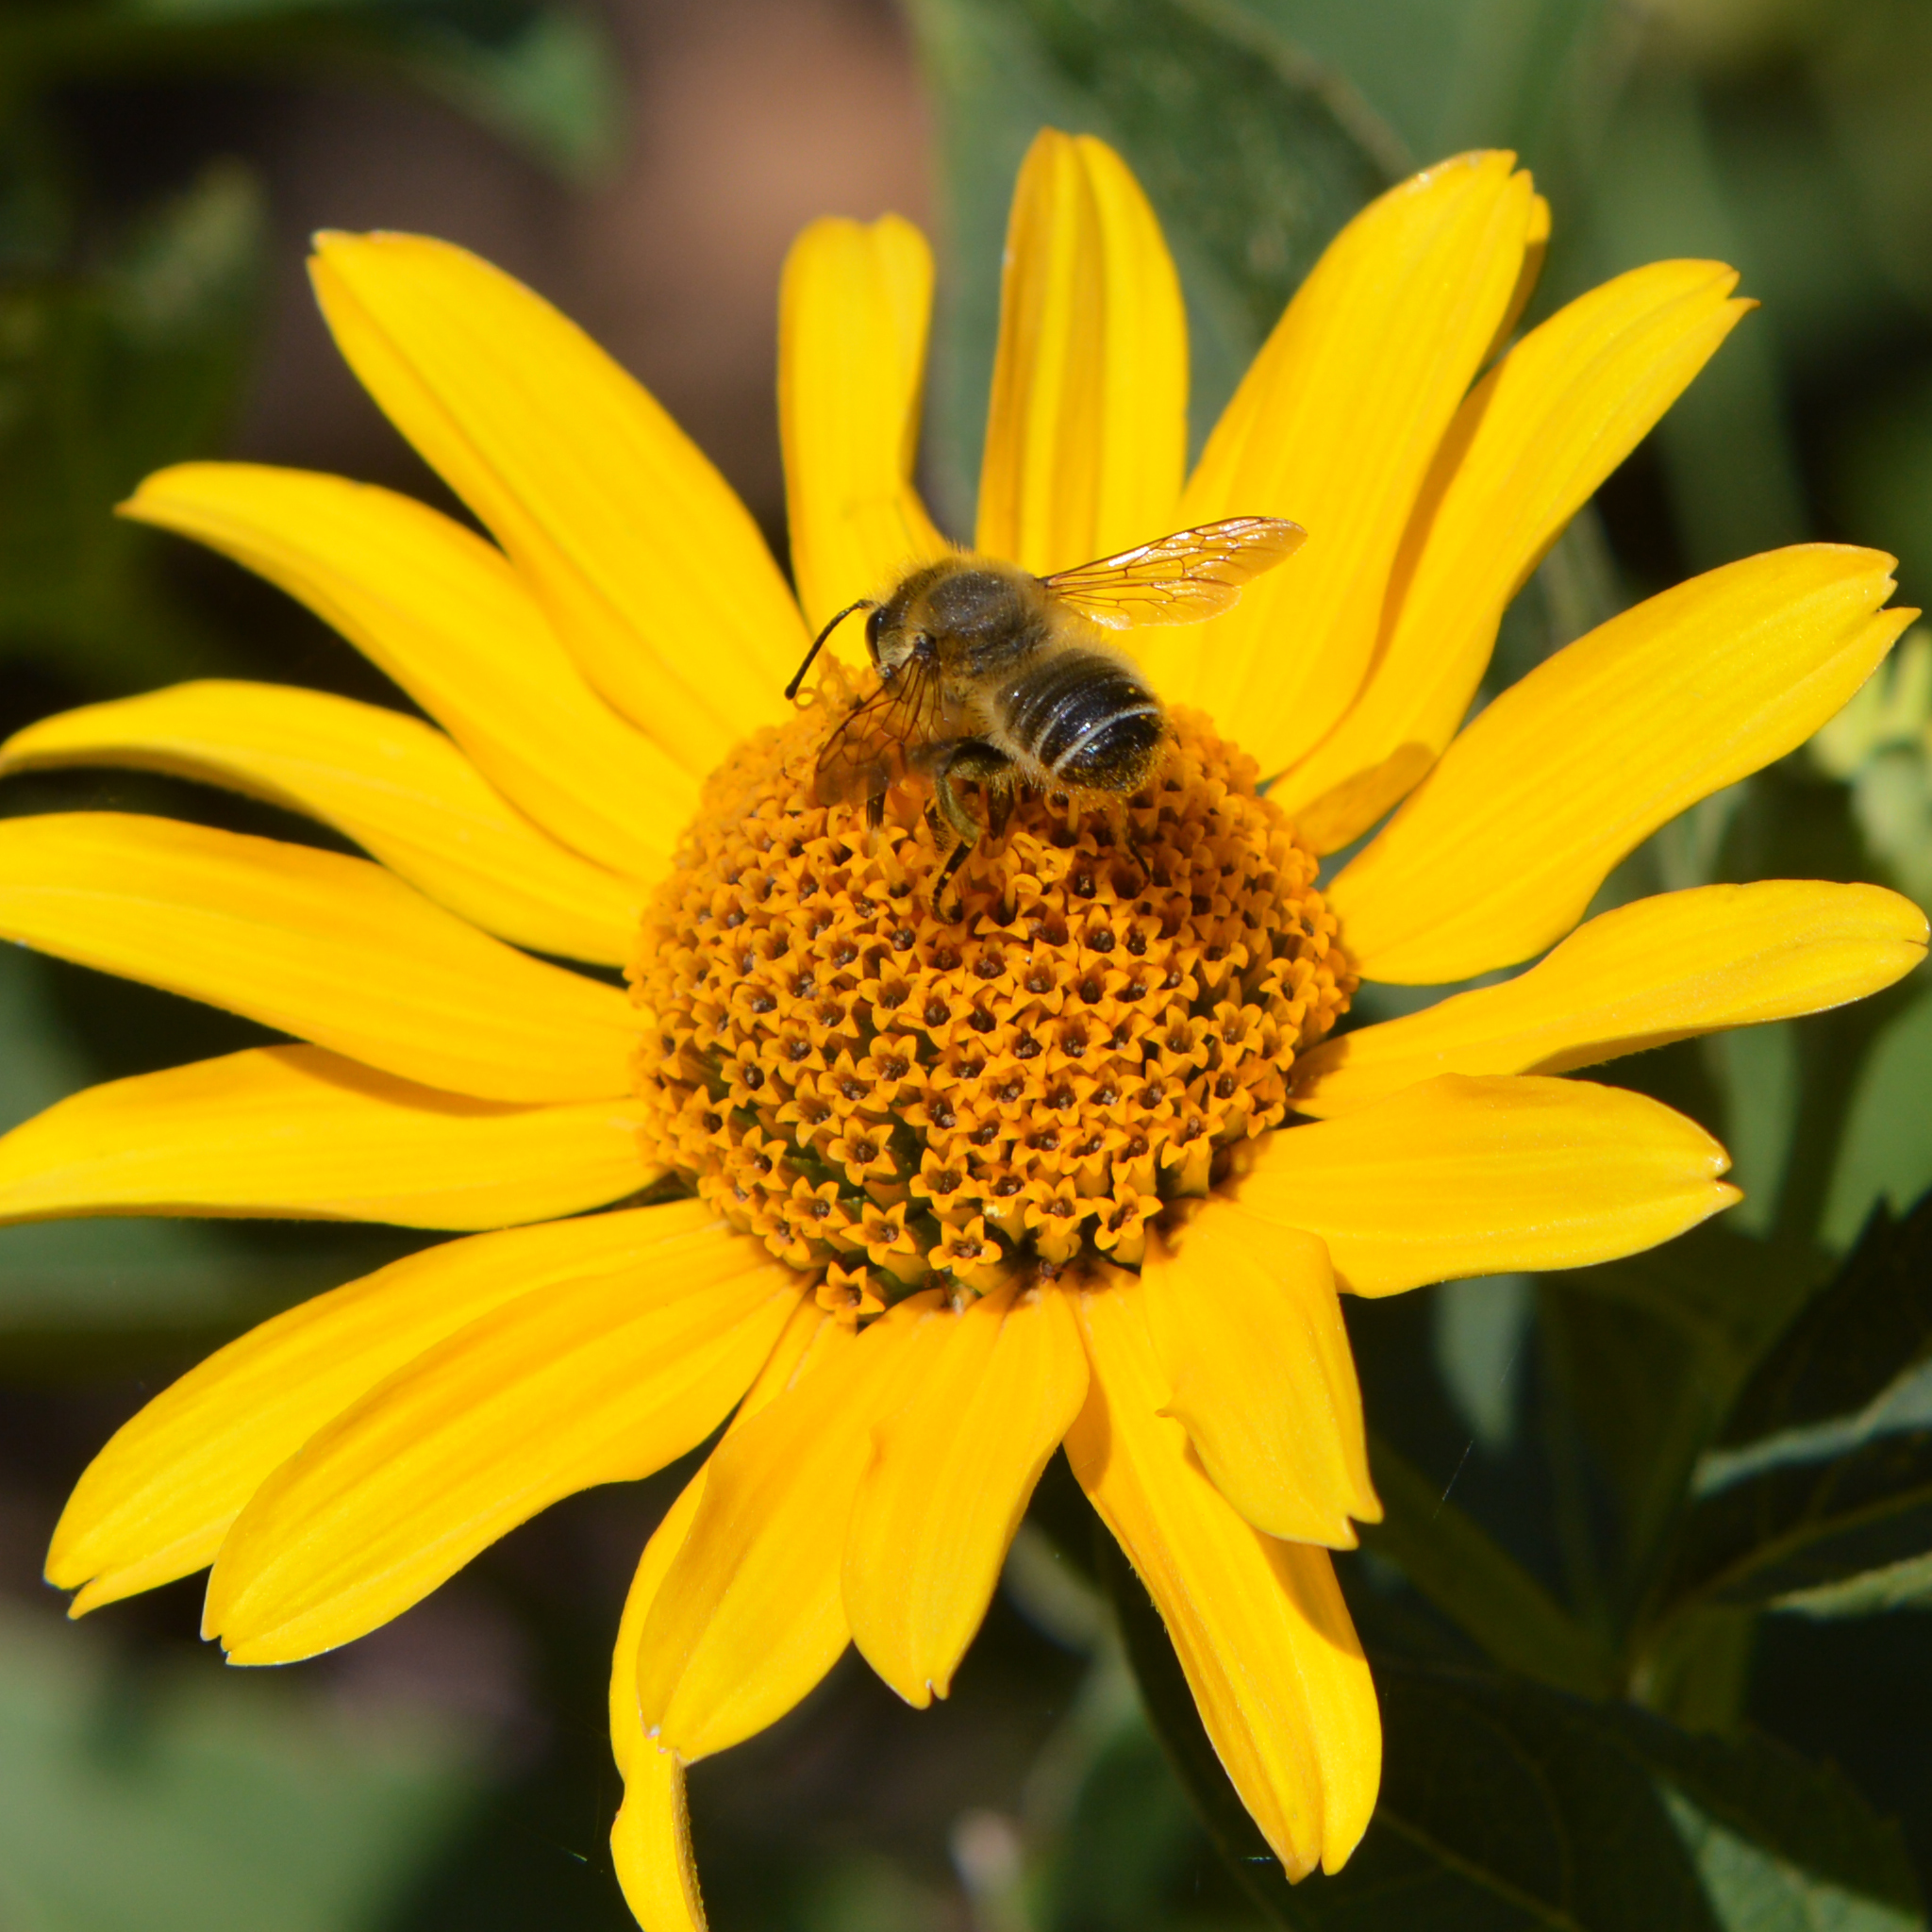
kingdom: Animalia
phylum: Arthropoda
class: Insecta
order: Hymenoptera
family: Megachilidae
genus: Megachile
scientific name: Megachile
